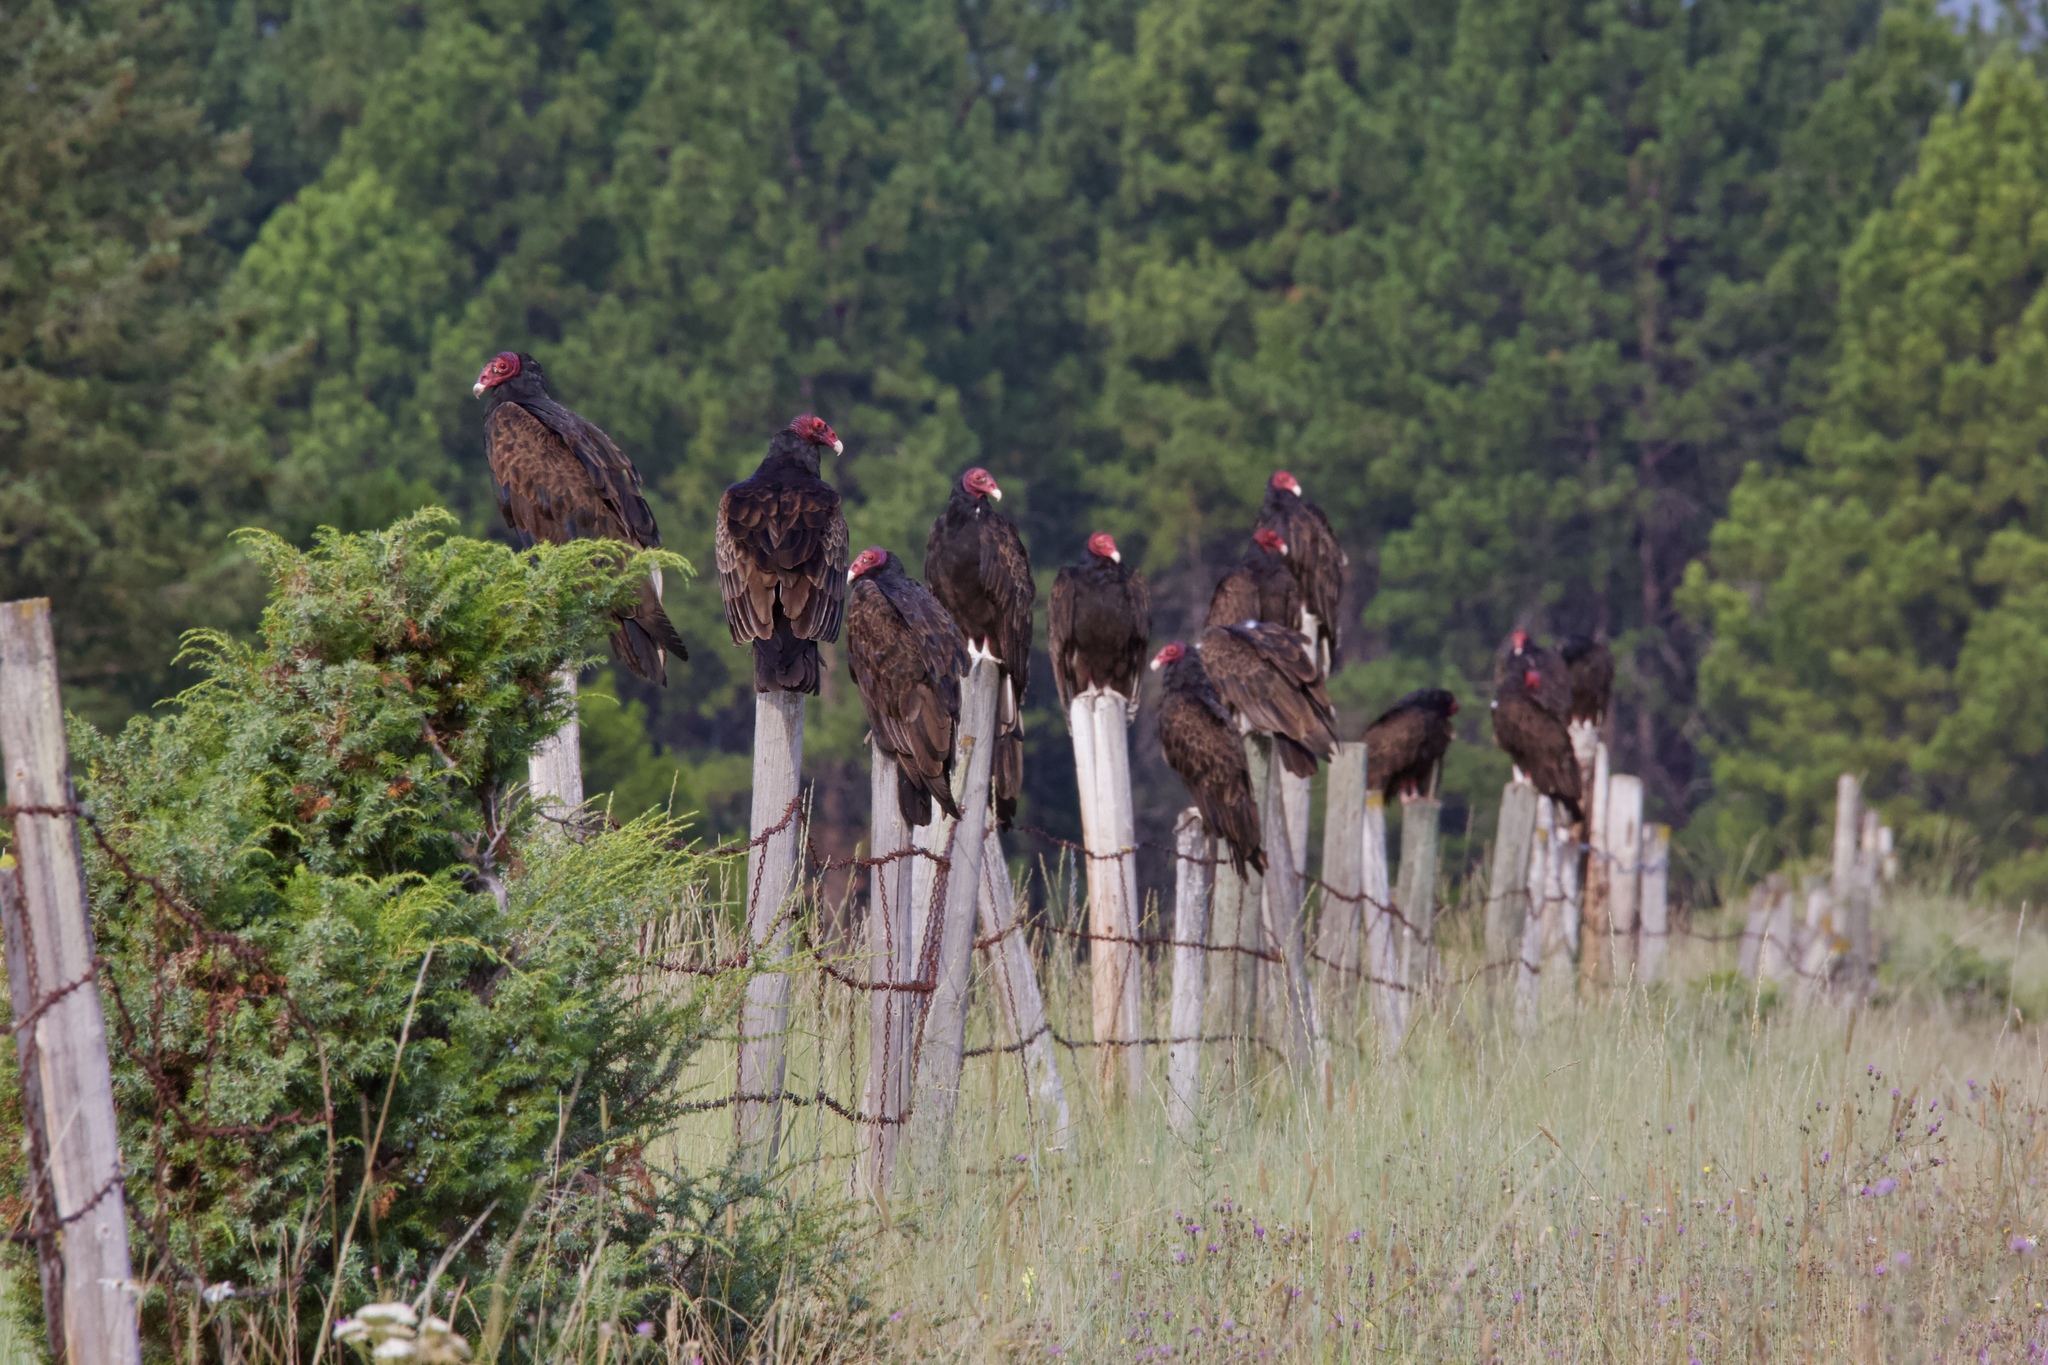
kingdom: Animalia
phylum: Chordata
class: Aves
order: Accipitriformes
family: Cathartidae
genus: Cathartes
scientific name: Cathartes aura
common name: Turkey vulture
